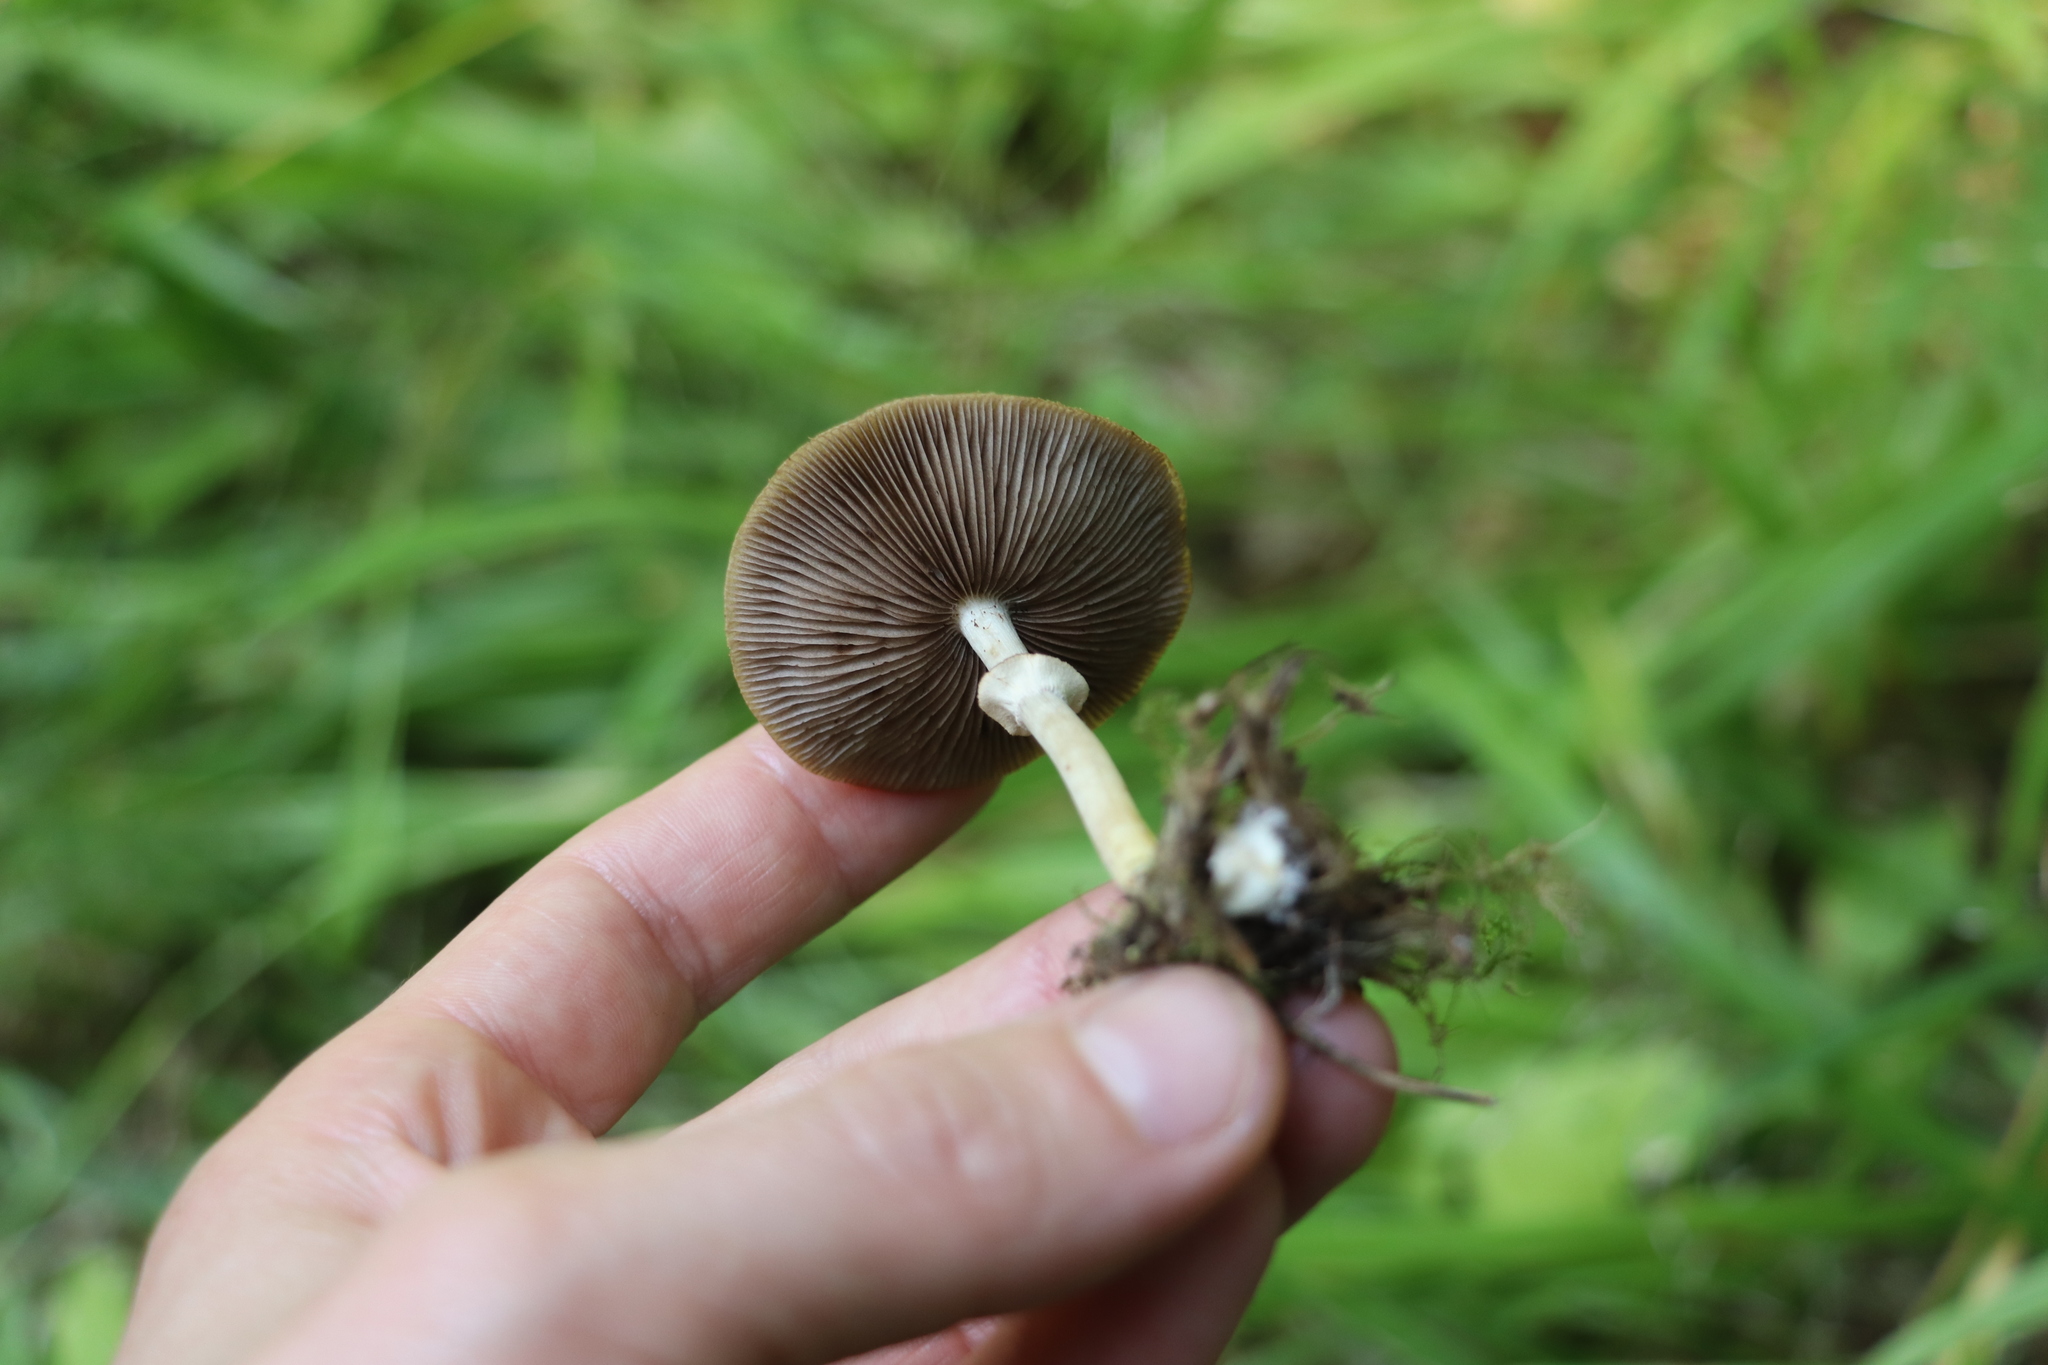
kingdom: Fungi
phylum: Basidiomycota
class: Agaricomycetes
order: Agaricales
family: Strophariaceae
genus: Agrocybe
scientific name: Agrocybe praecox
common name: Spring fieldcap
